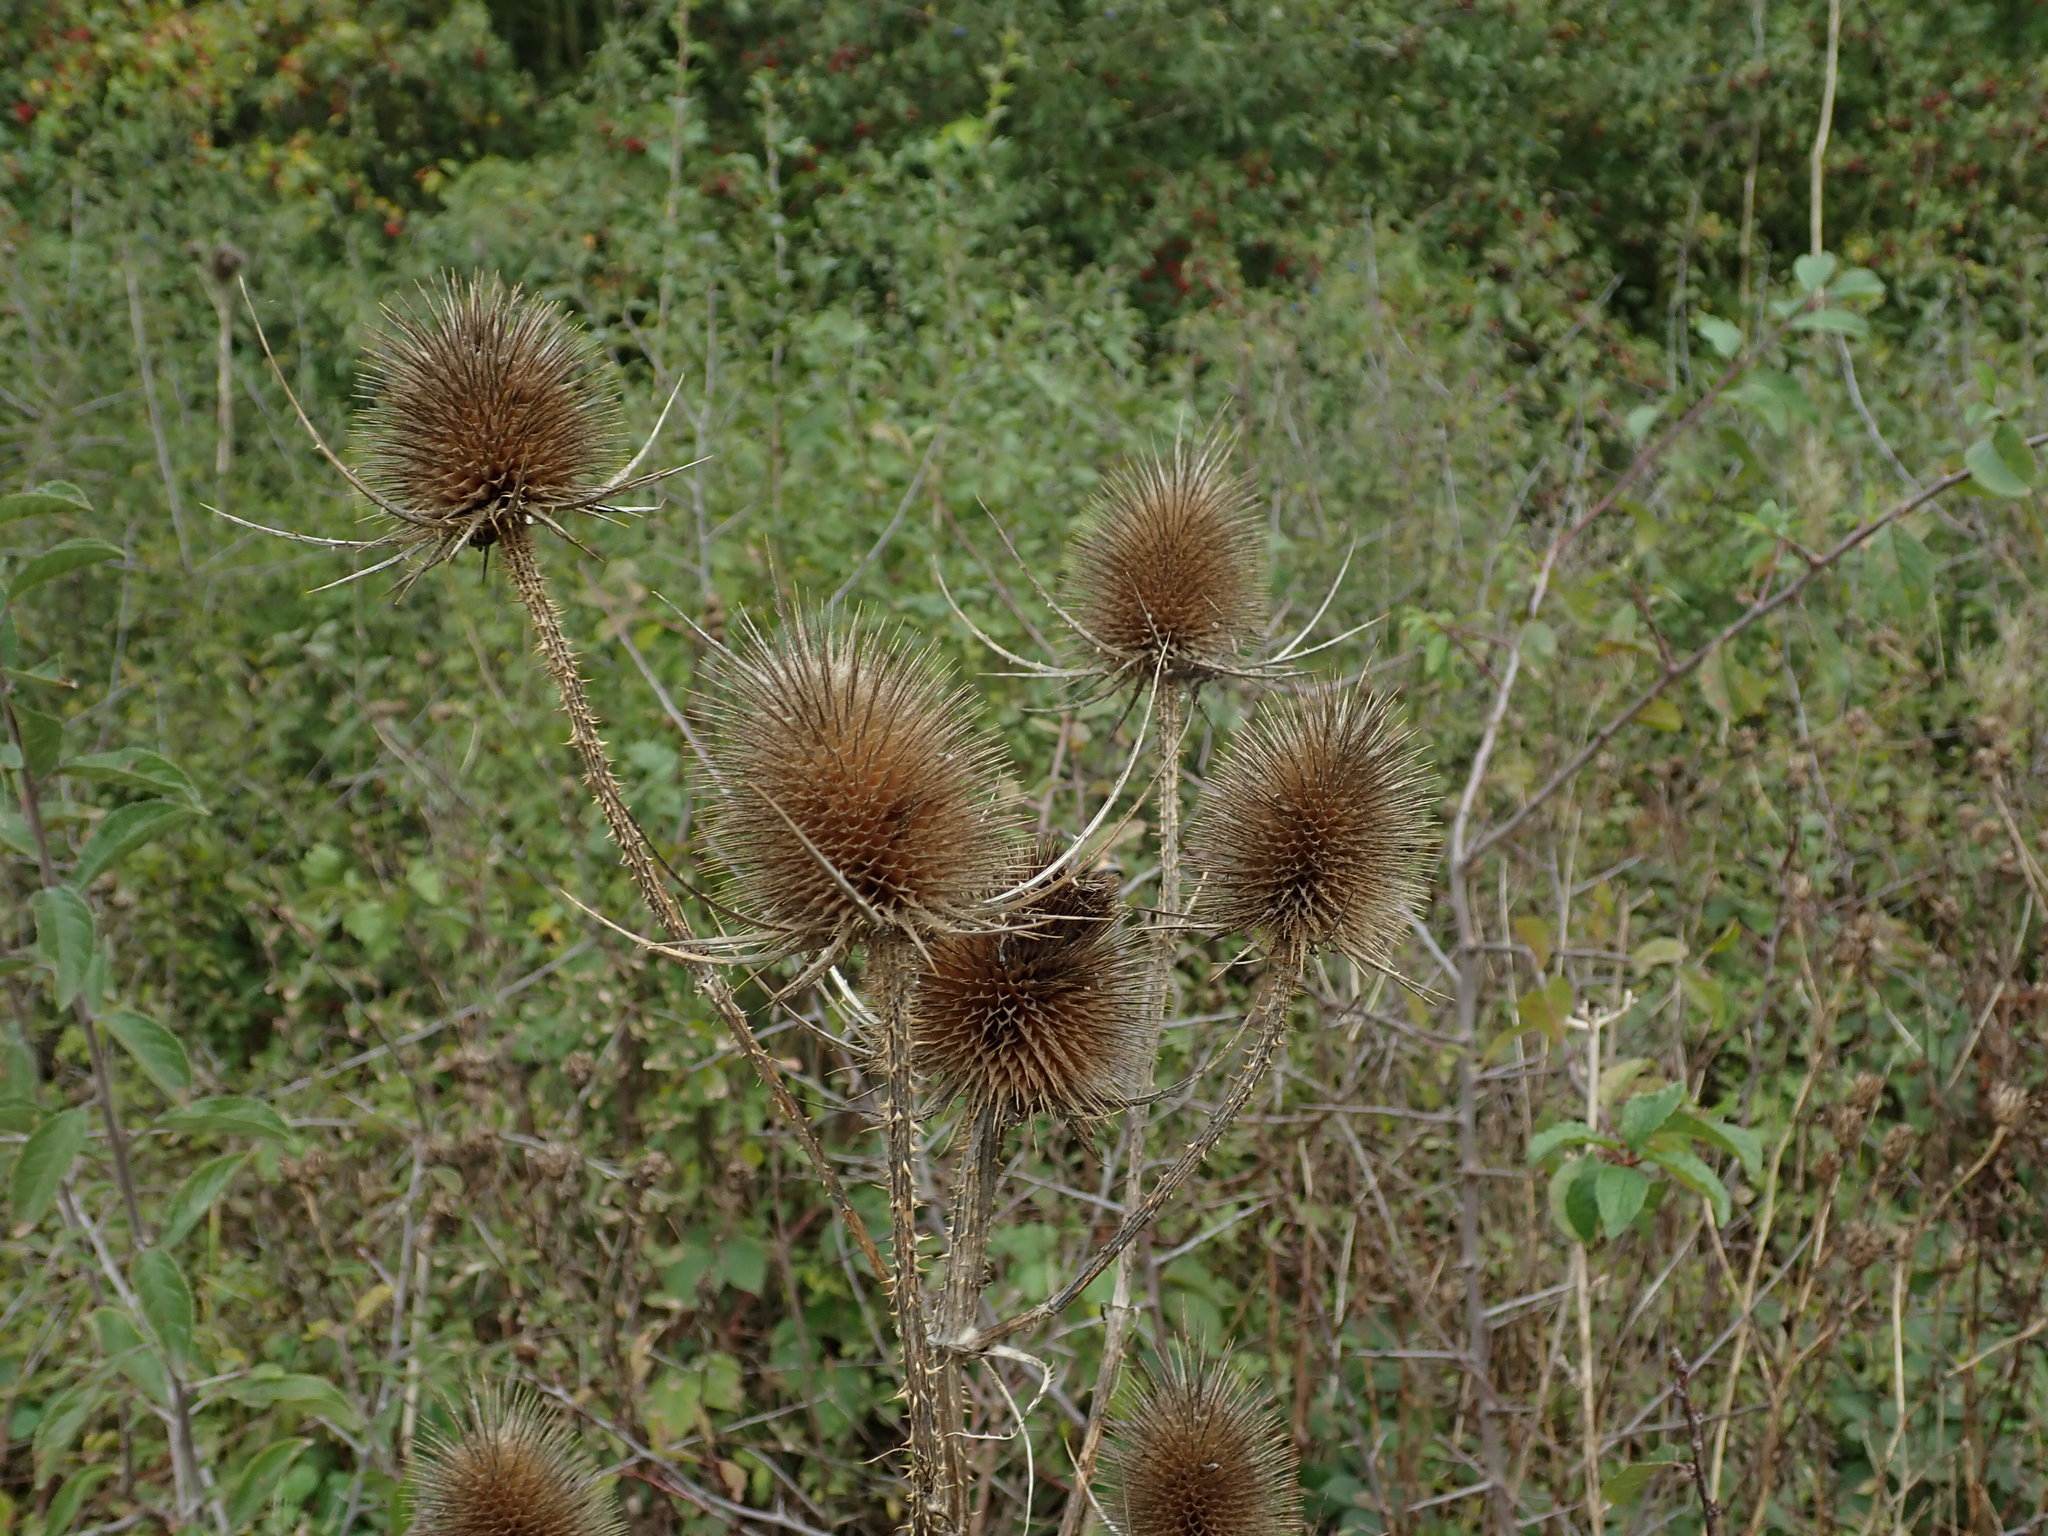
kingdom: Plantae
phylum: Tracheophyta
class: Magnoliopsida
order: Dipsacales
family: Caprifoliaceae
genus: Dipsacus
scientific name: Dipsacus fullonum
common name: Teasel
